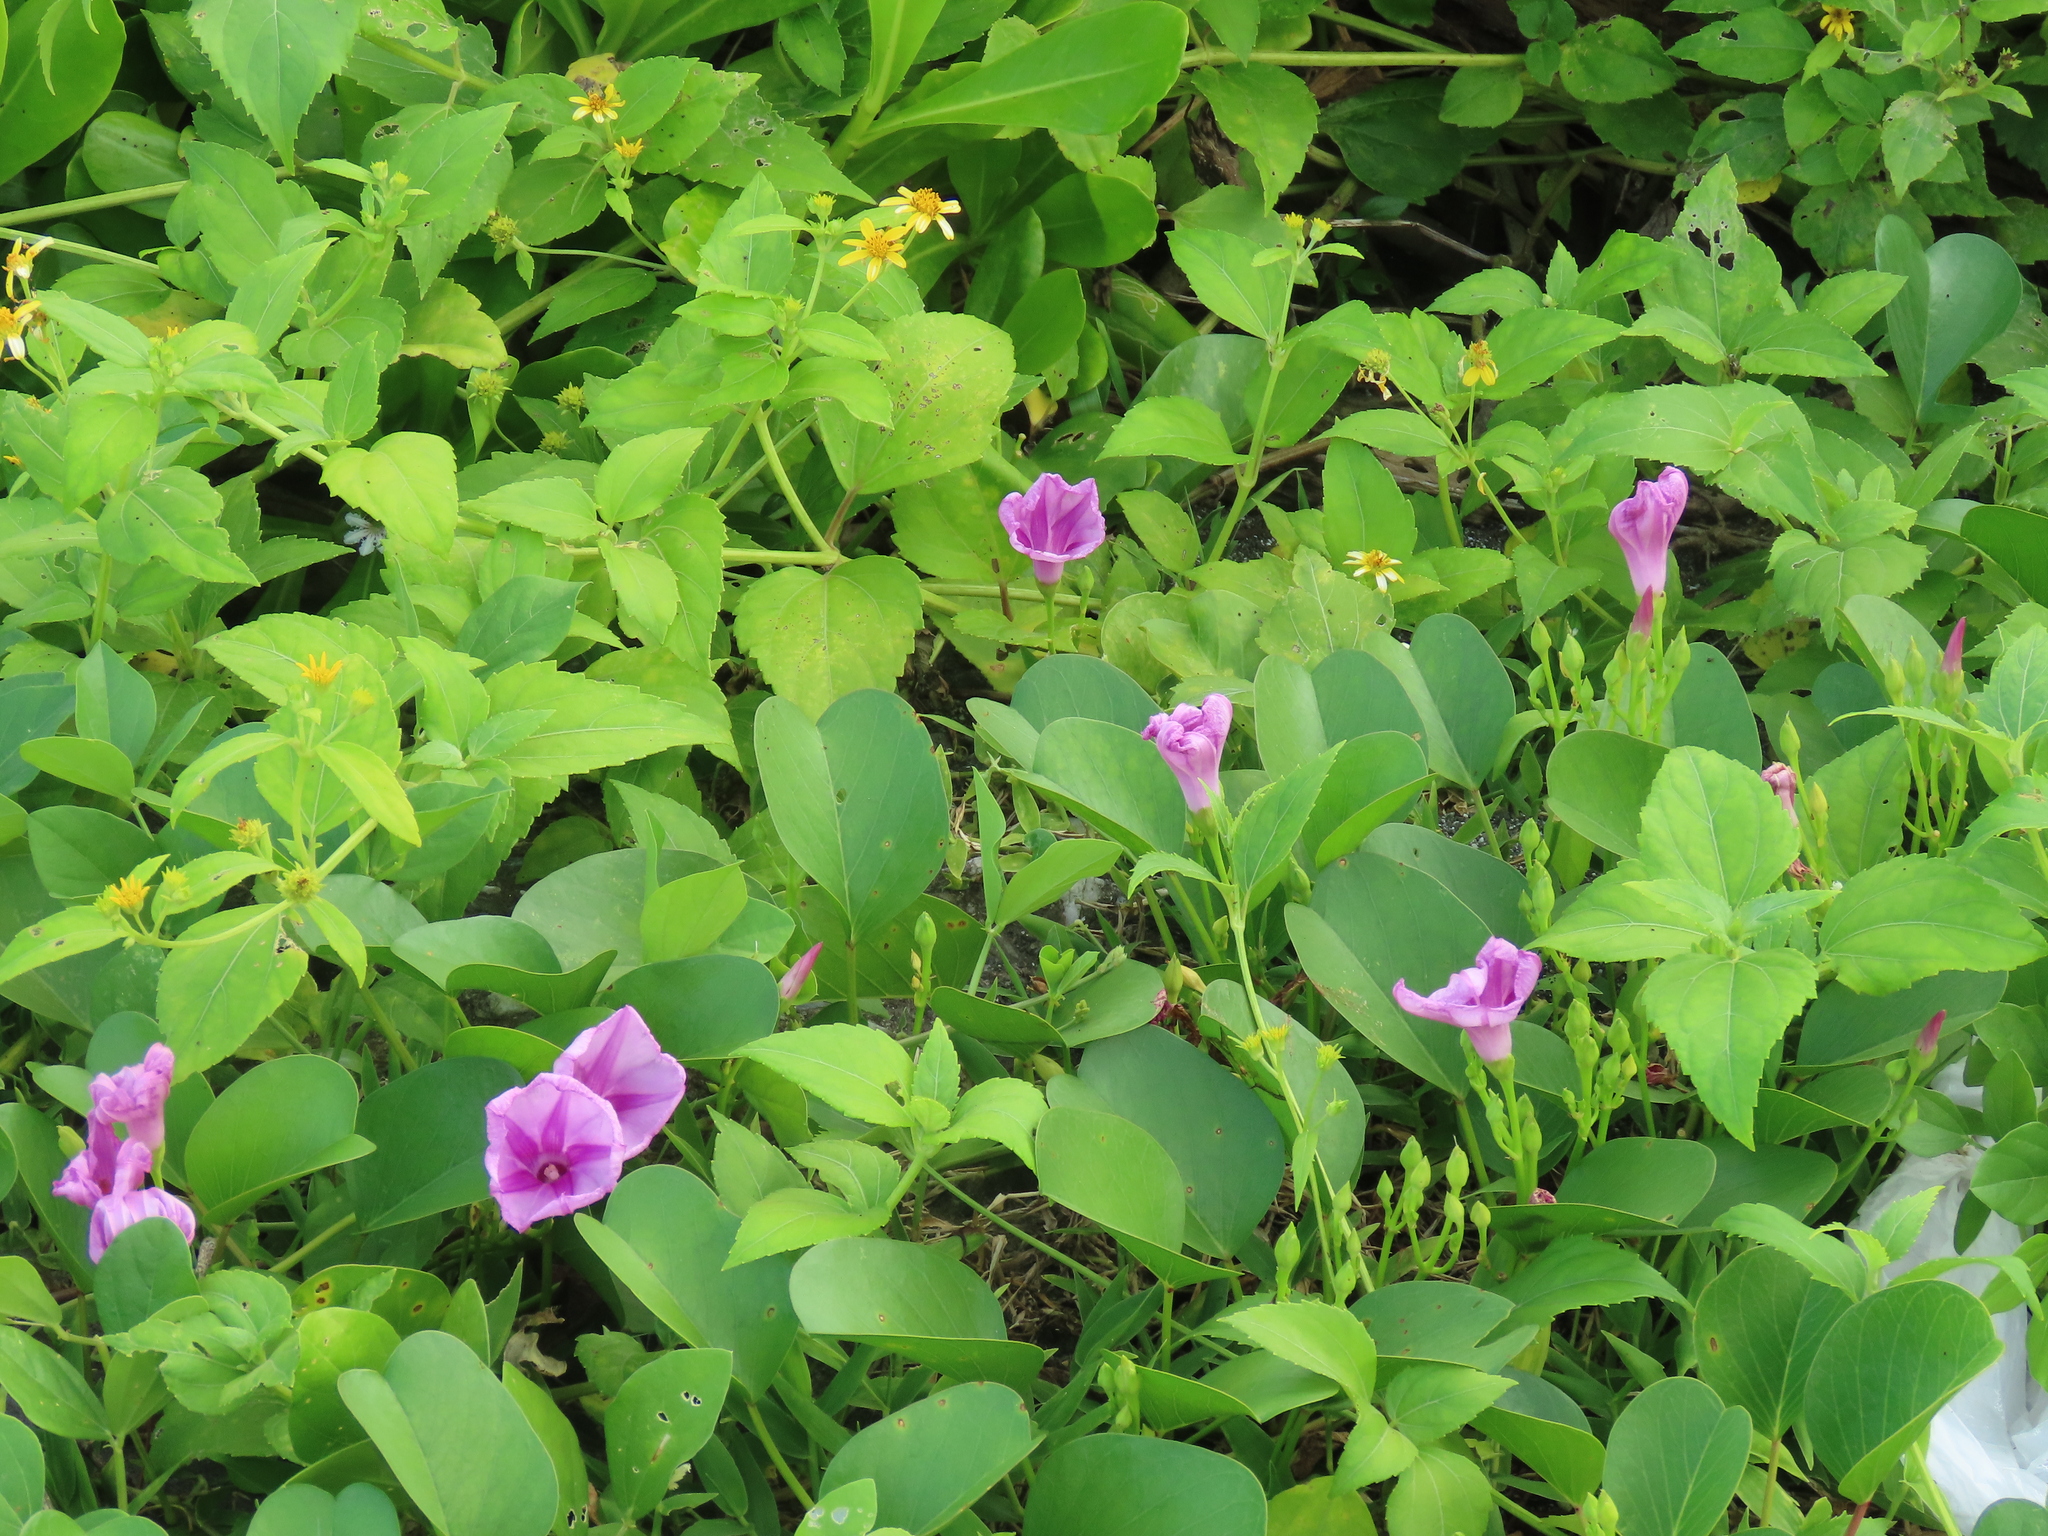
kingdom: Plantae
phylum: Tracheophyta
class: Magnoliopsida
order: Solanales
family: Convolvulaceae
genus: Ipomoea
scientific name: Ipomoea pes-caprae
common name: Beach morning glory
